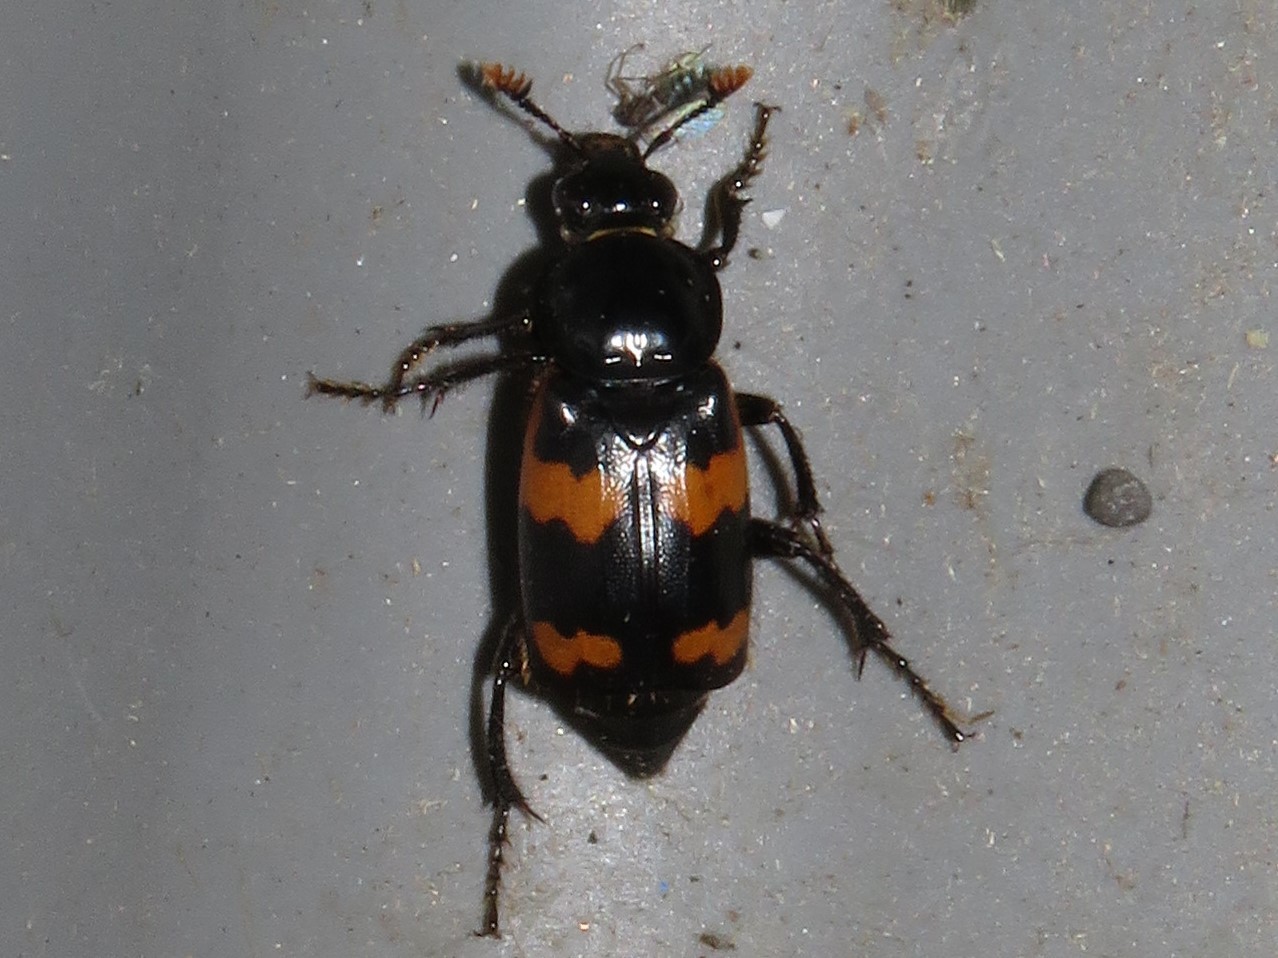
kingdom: Animalia
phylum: Arthropoda
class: Insecta
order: Coleoptera
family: Staphylinidae
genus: Nicrophorus
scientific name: Nicrophorus sayi
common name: Say's burying beetle
